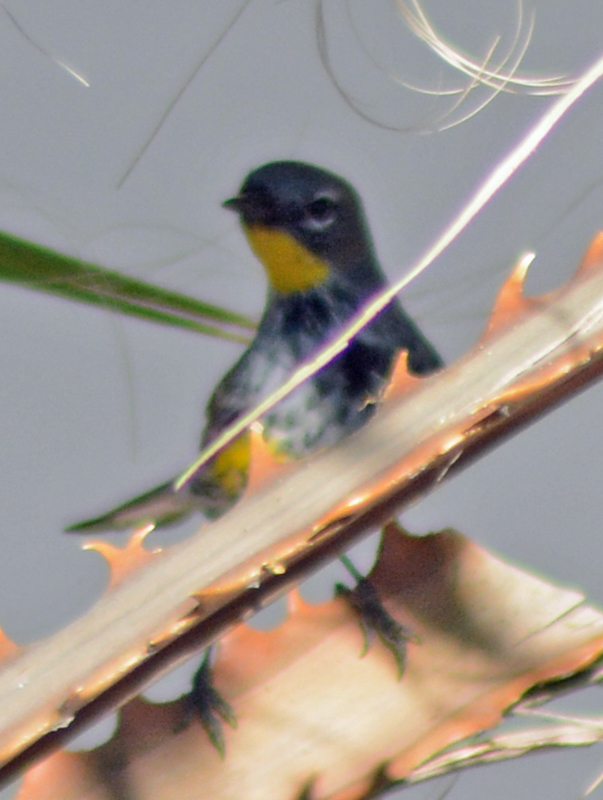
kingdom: Animalia
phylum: Chordata
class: Aves
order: Passeriformes
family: Parulidae
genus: Setophaga
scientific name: Setophaga auduboni
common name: Audubon's warbler
